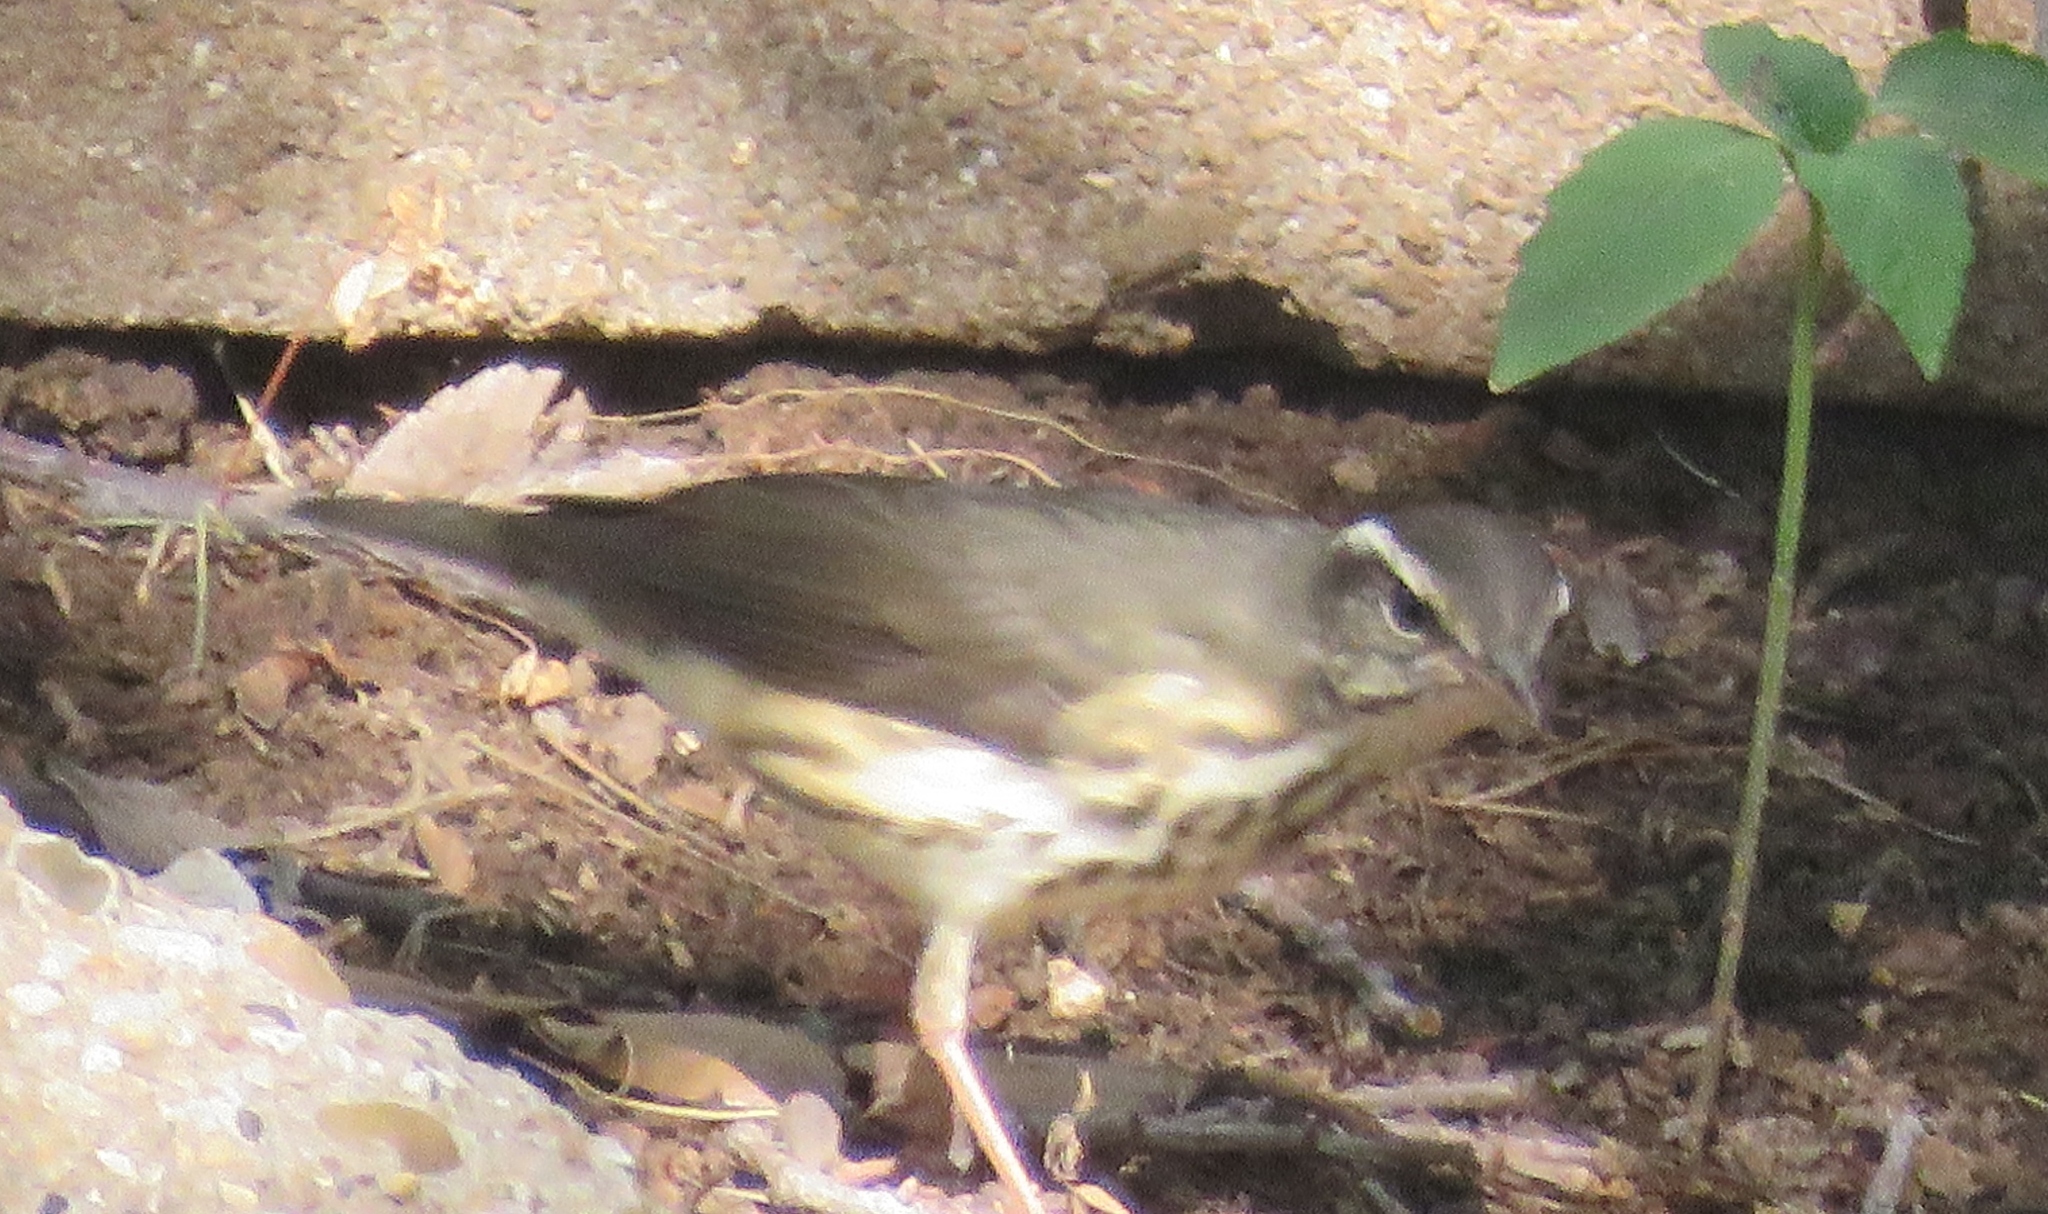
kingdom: Animalia
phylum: Chordata
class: Aves
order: Passeriformes
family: Parulidae
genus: Parkesia
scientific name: Parkesia motacilla
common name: Louisiana waterthrush
